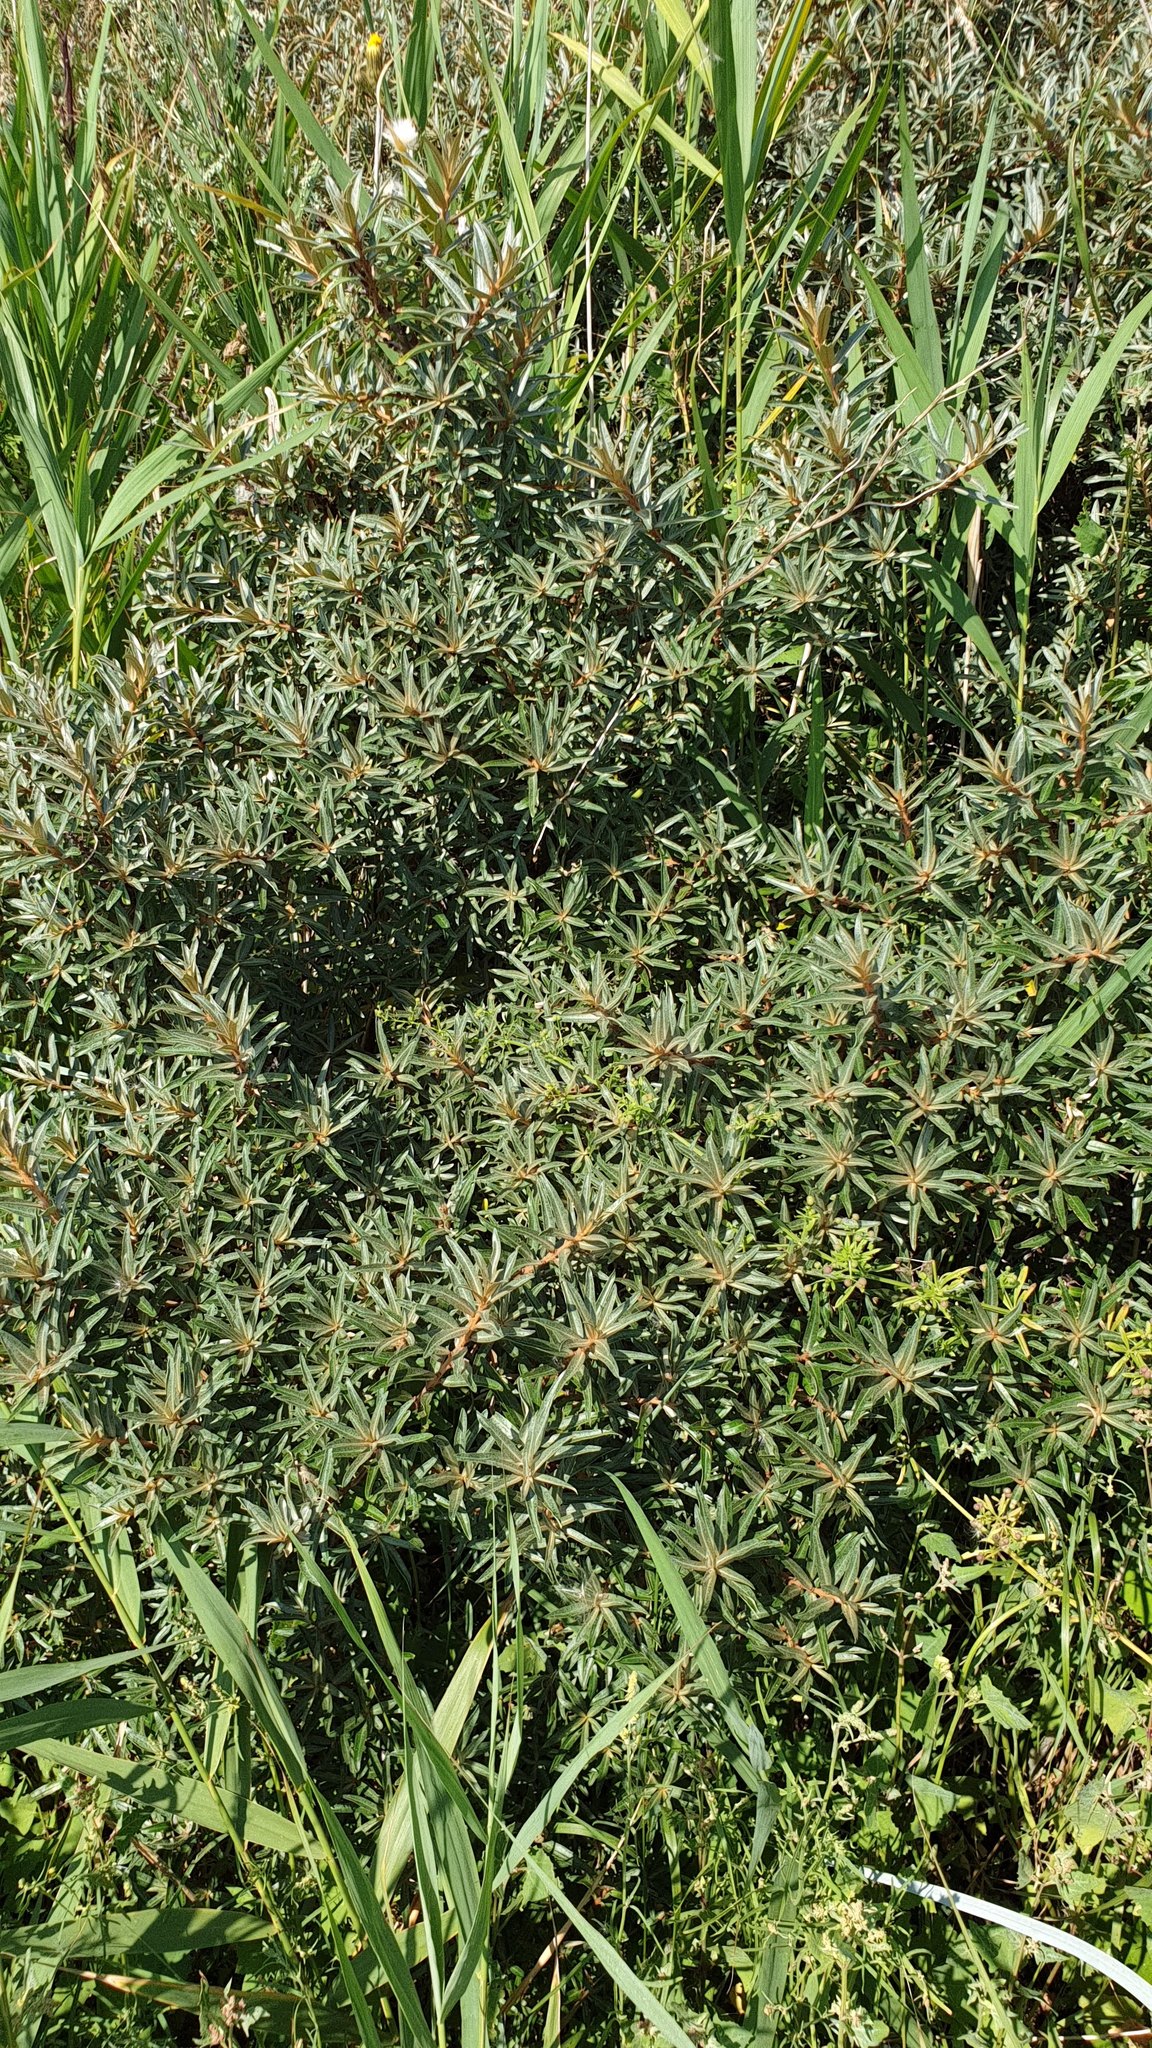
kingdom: Plantae
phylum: Tracheophyta
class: Magnoliopsida
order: Rosales
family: Elaeagnaceae
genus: Hippophae
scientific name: Hippophae rhamnoides
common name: Sea-buckthorn
